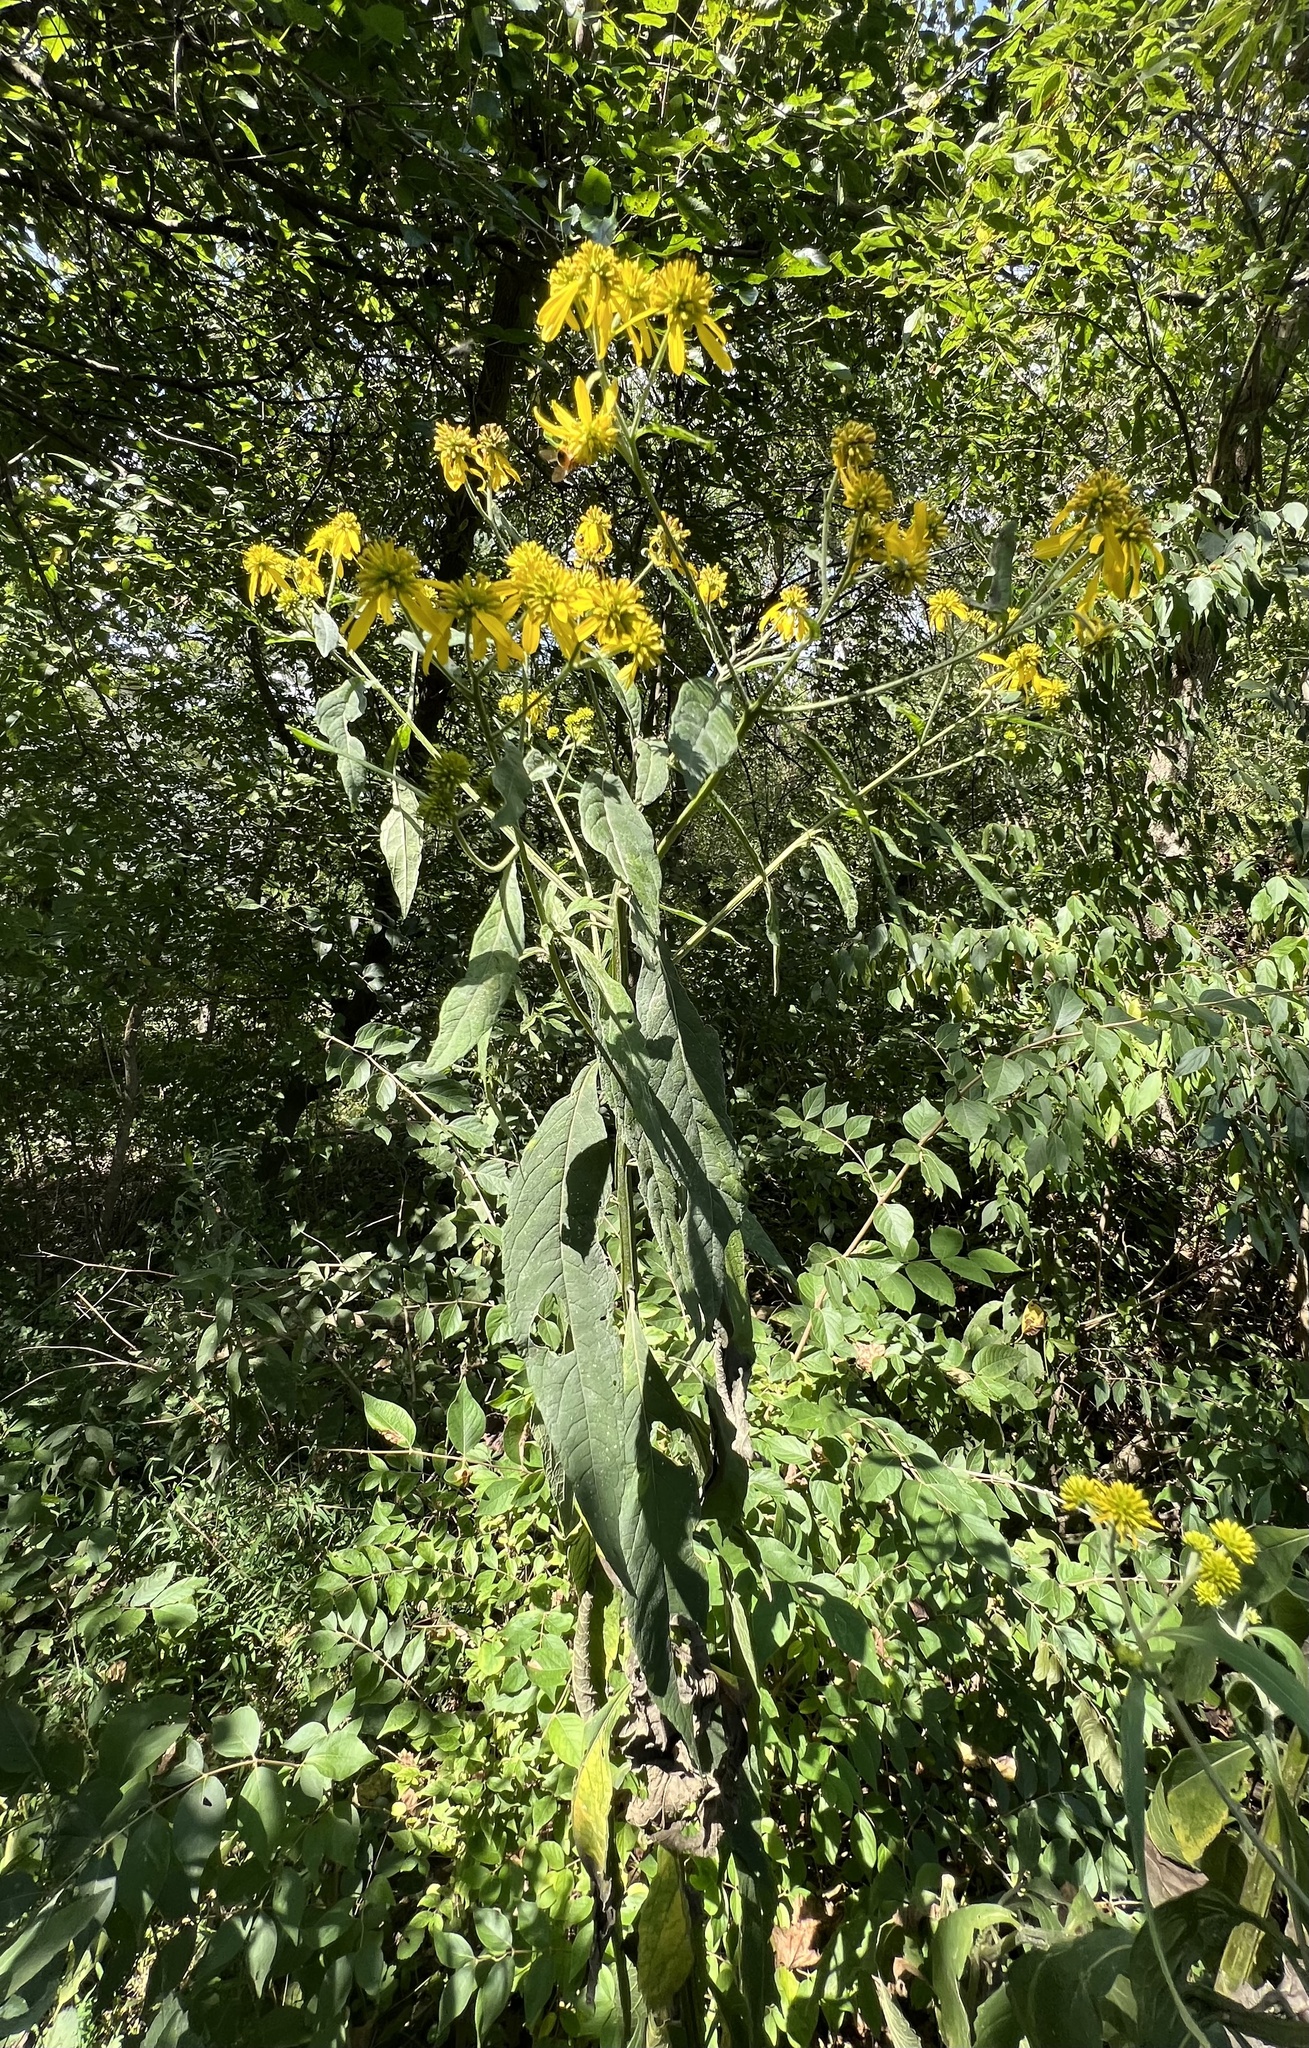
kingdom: Plantae
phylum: Tracheophyta
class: Magnoliopsida
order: Asterales
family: Asteraceae
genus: Verbesina
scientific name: Verbesina alternifolia
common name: Wingstem
